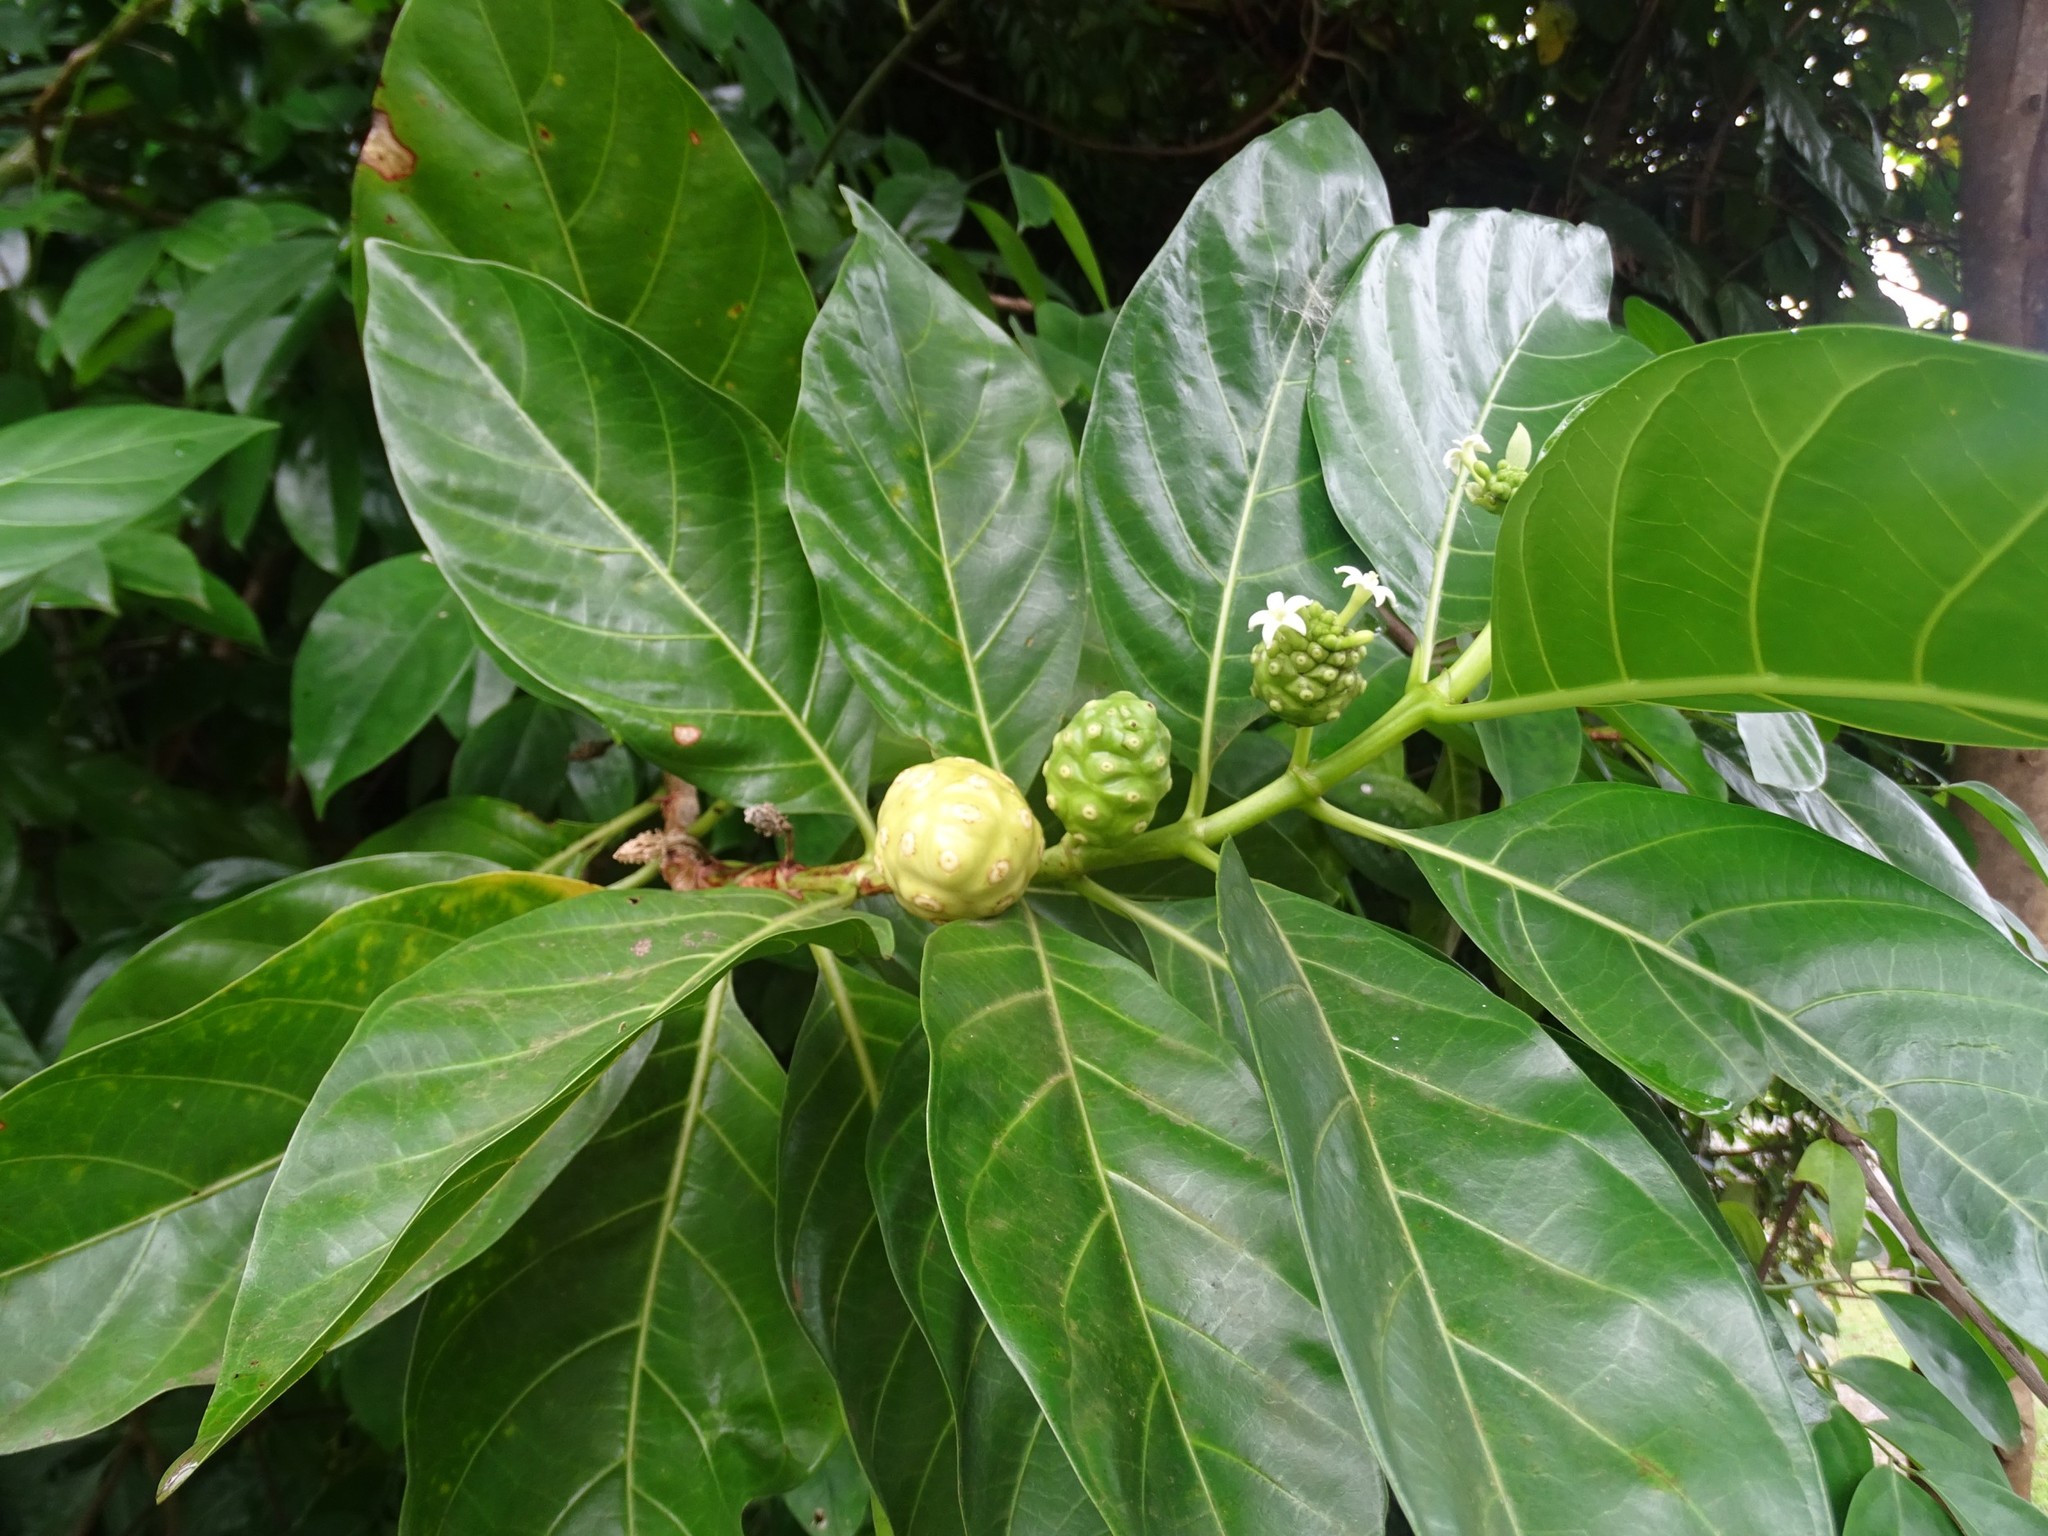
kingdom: Plantae
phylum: Tracheophyta
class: Magnoliopsida
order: Gentianales
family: Rubiaceae
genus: Morinda
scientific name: Morinda citrifolia
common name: Indian-mulberry
